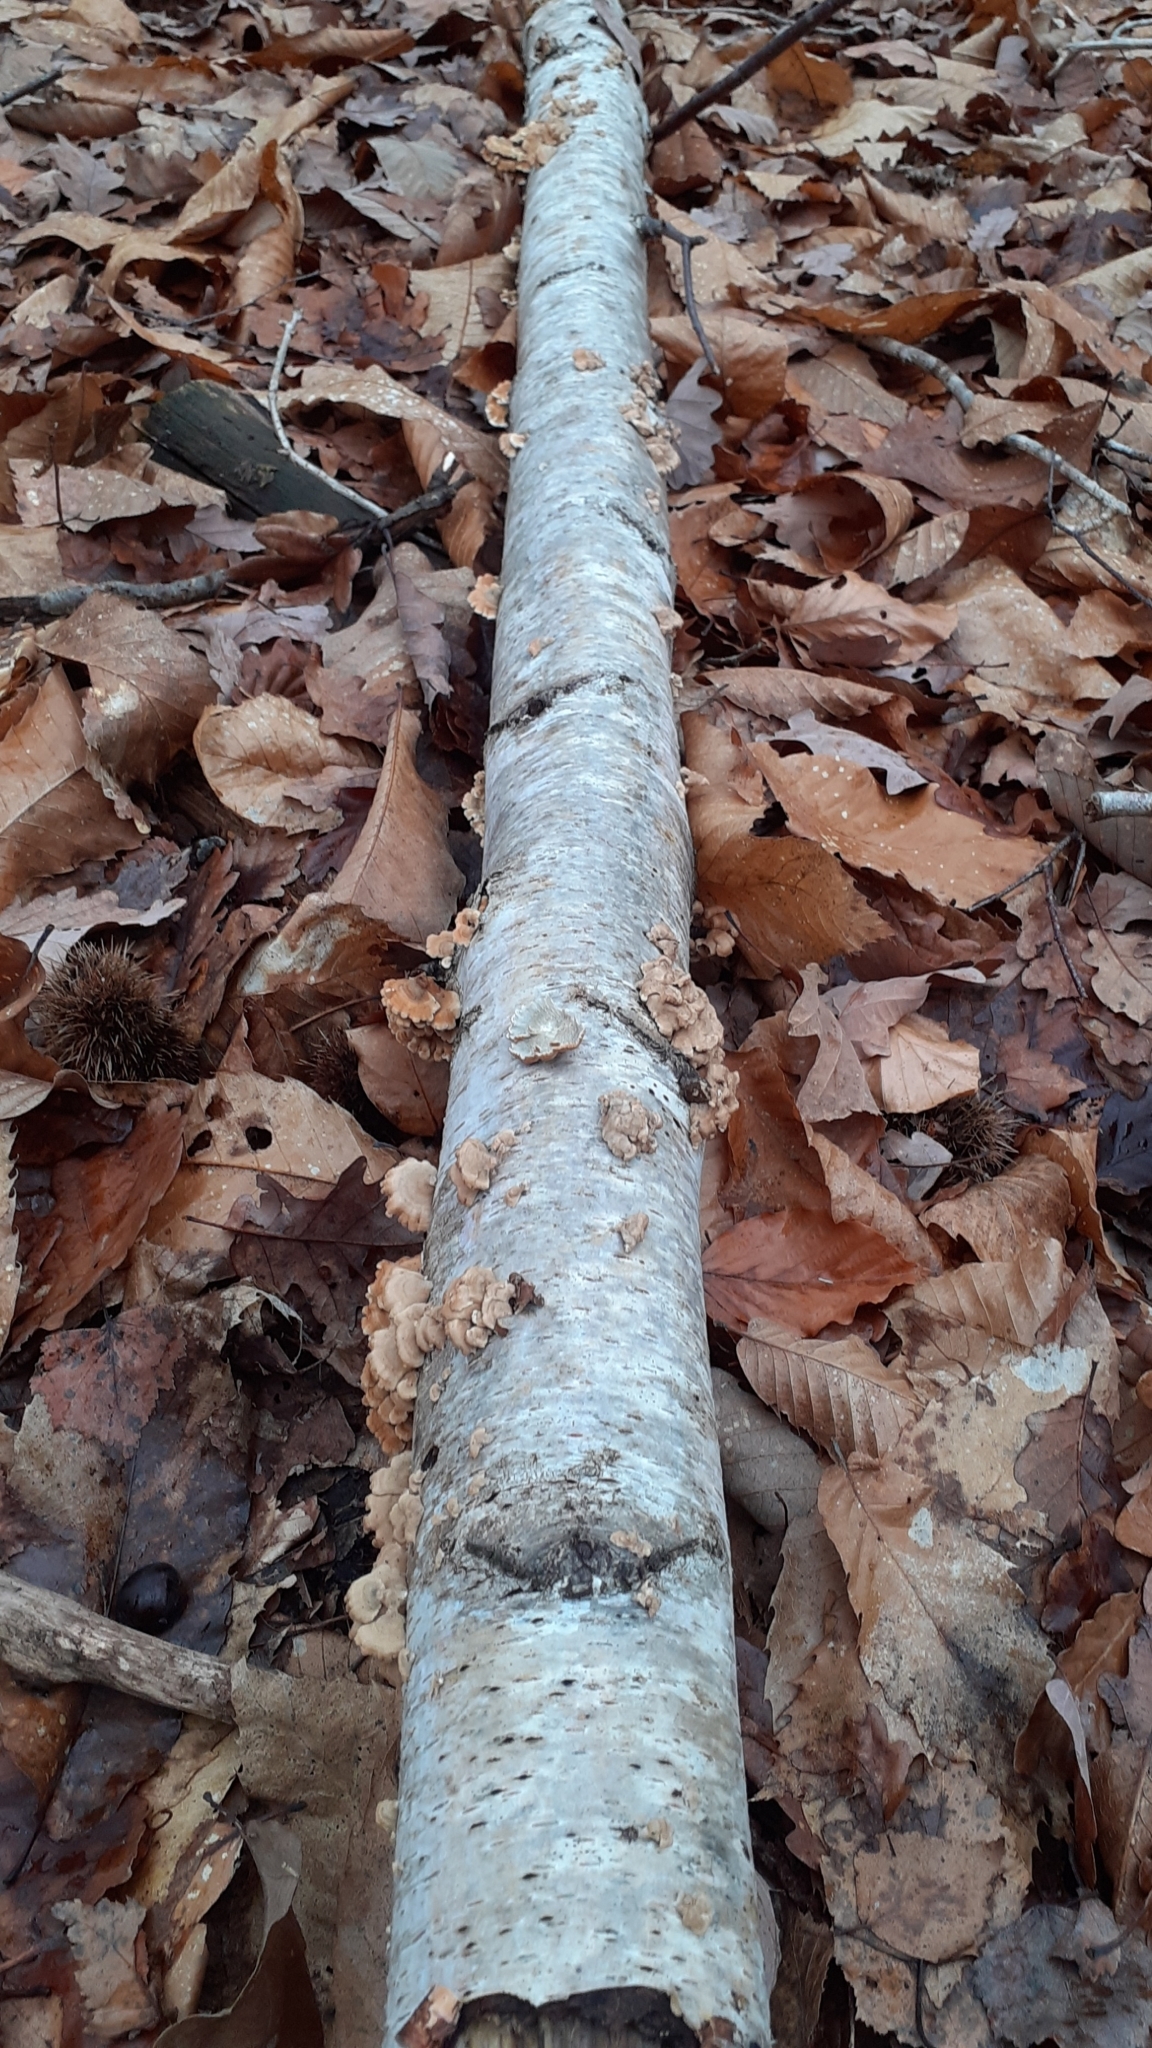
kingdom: Fungi
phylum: Basidiomycota
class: Agaricomycetes
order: Amylocorticiales
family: Amylocorticiaceae
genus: Plicaturopsis
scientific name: Plicaturopsis crispa
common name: Crimped gill
